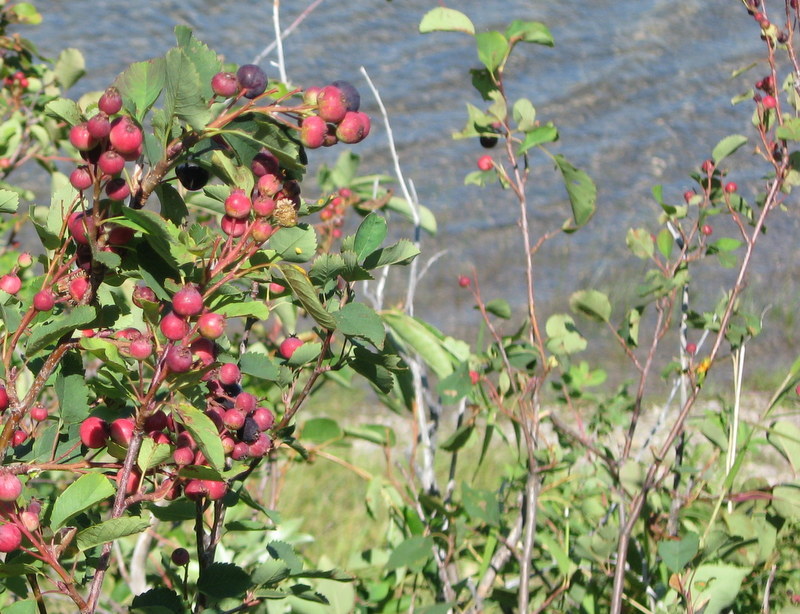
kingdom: Plantae
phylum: Tracheophyta
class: Magnoliopsida
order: Rosales
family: Rosaceae
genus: Amelanchier
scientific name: Amelanchier alnifolia
